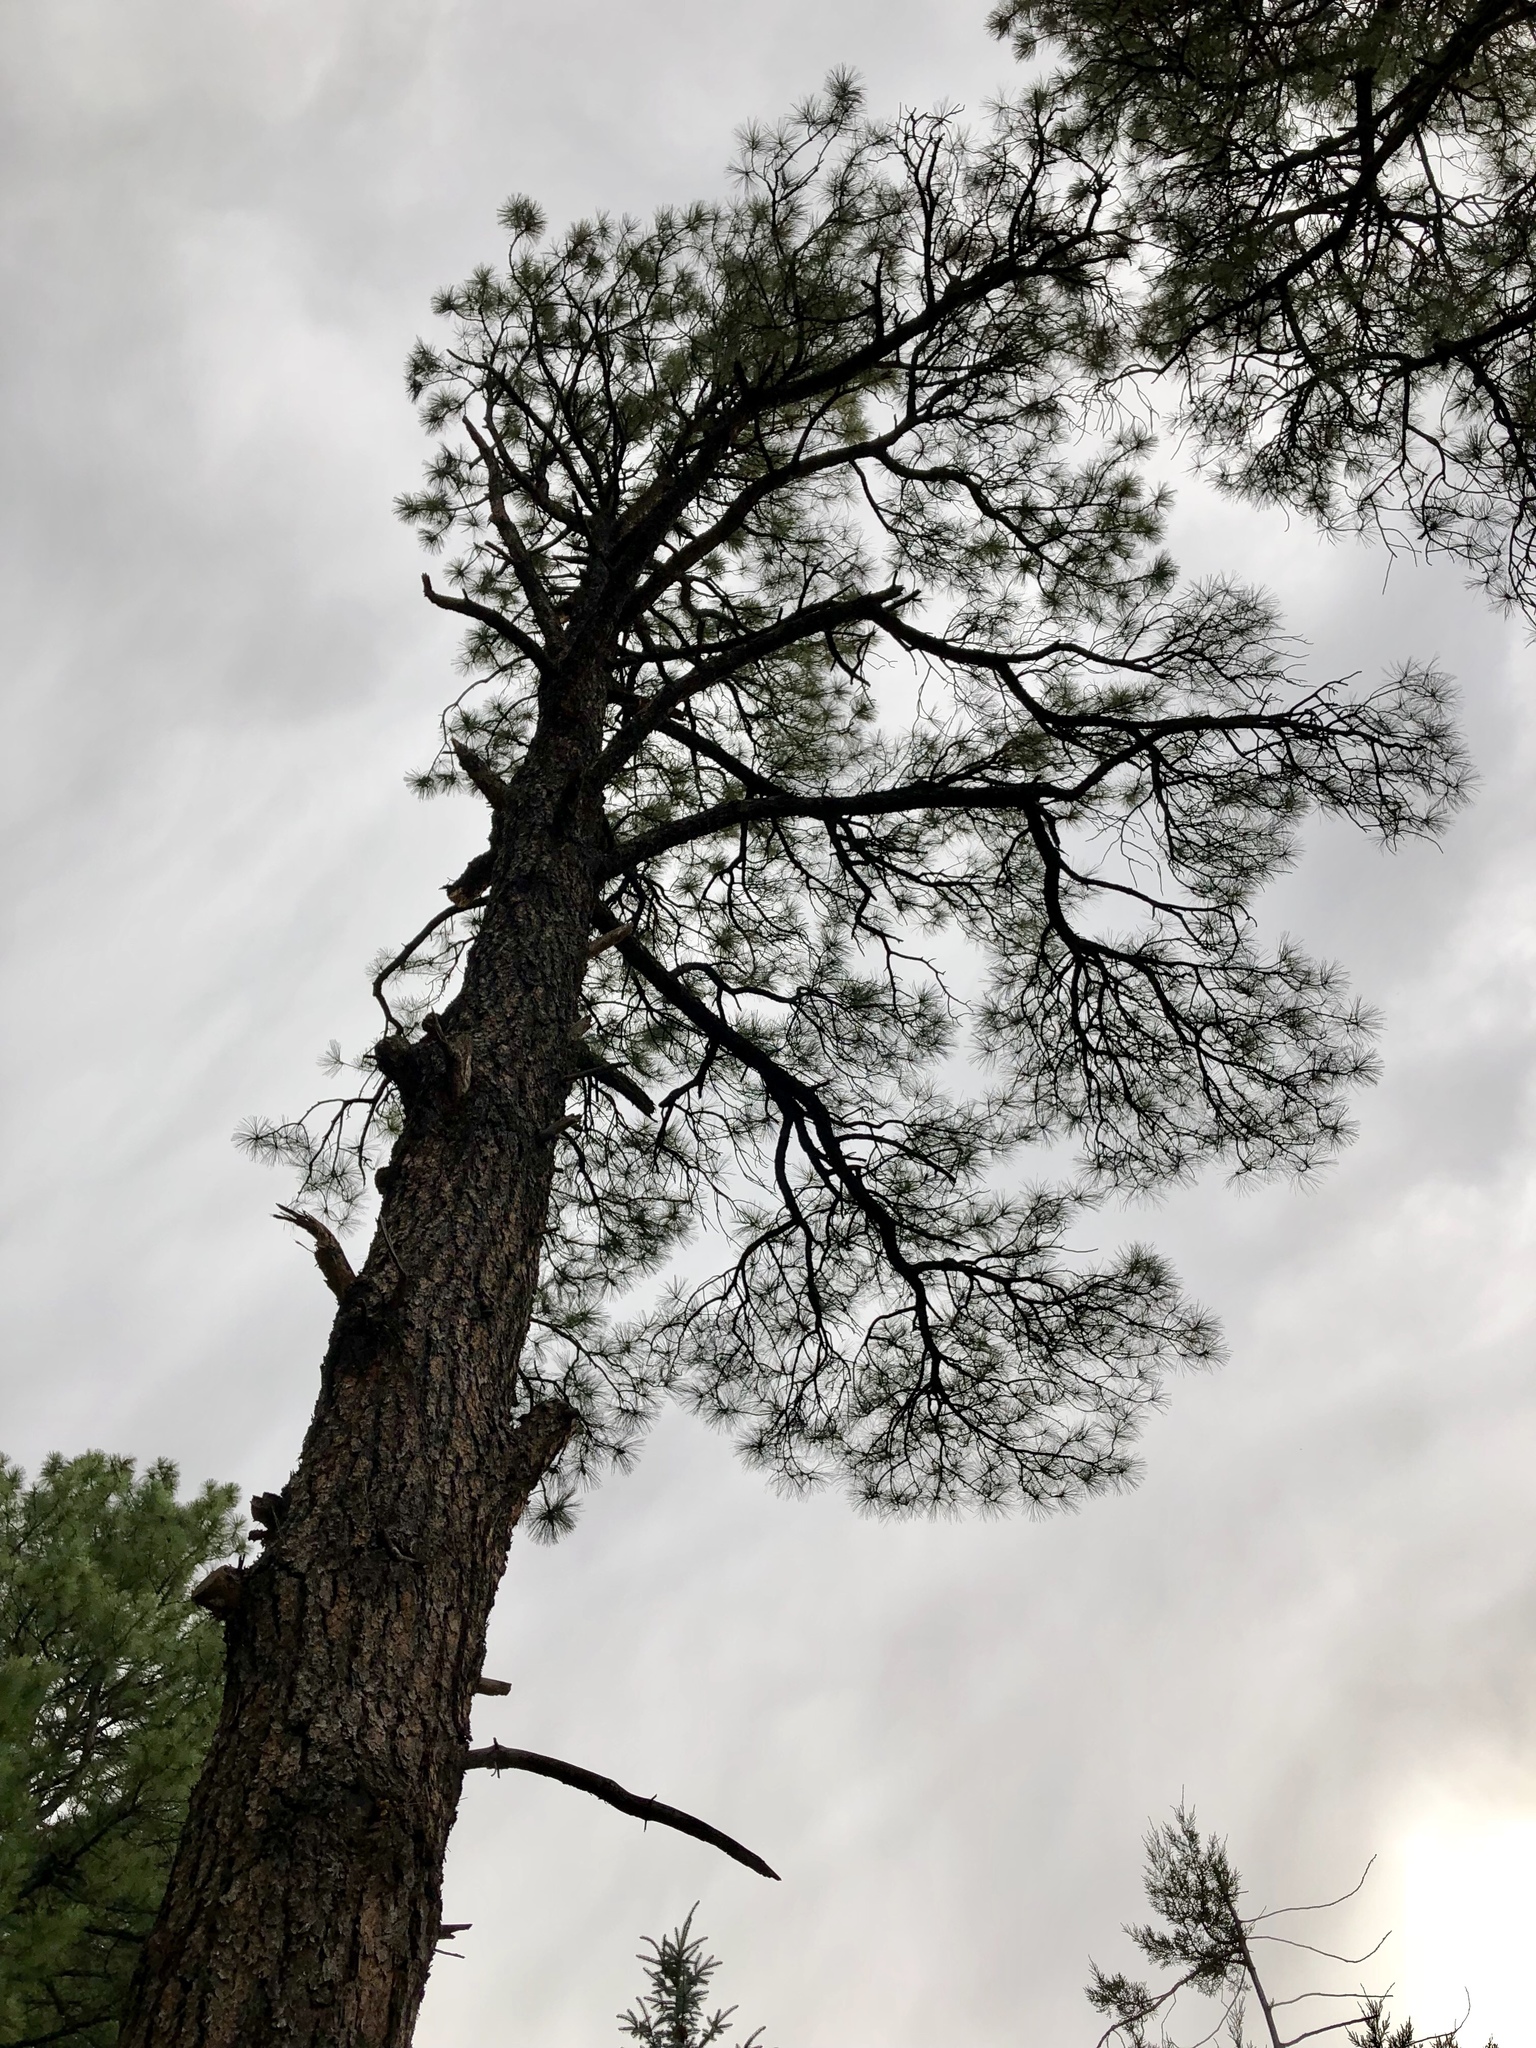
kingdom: Plantae
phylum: Tracheophyta
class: Pinopsida
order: Pinales
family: Pinaceae
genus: Pinus
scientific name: Pinus ponderosa
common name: Western yellow-pine
